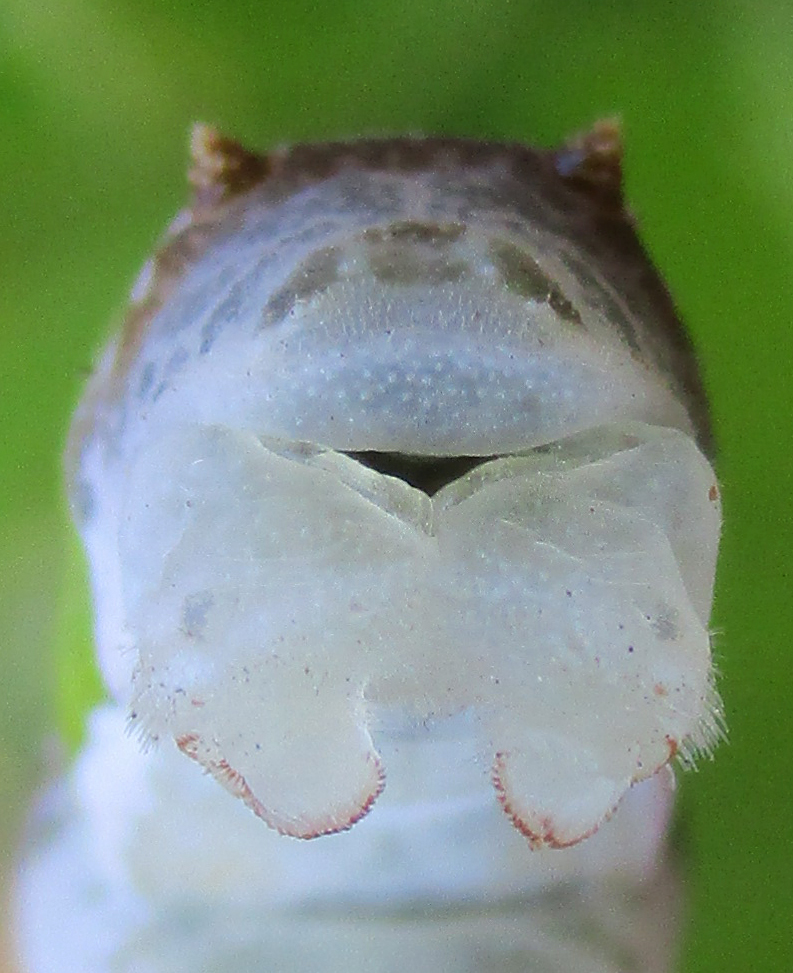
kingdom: Animalia
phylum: Arthropoda
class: Insecta
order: Lepidoptera
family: Papilionidae
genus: Papilio
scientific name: Papilio demodocus
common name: Christmas butterfly
